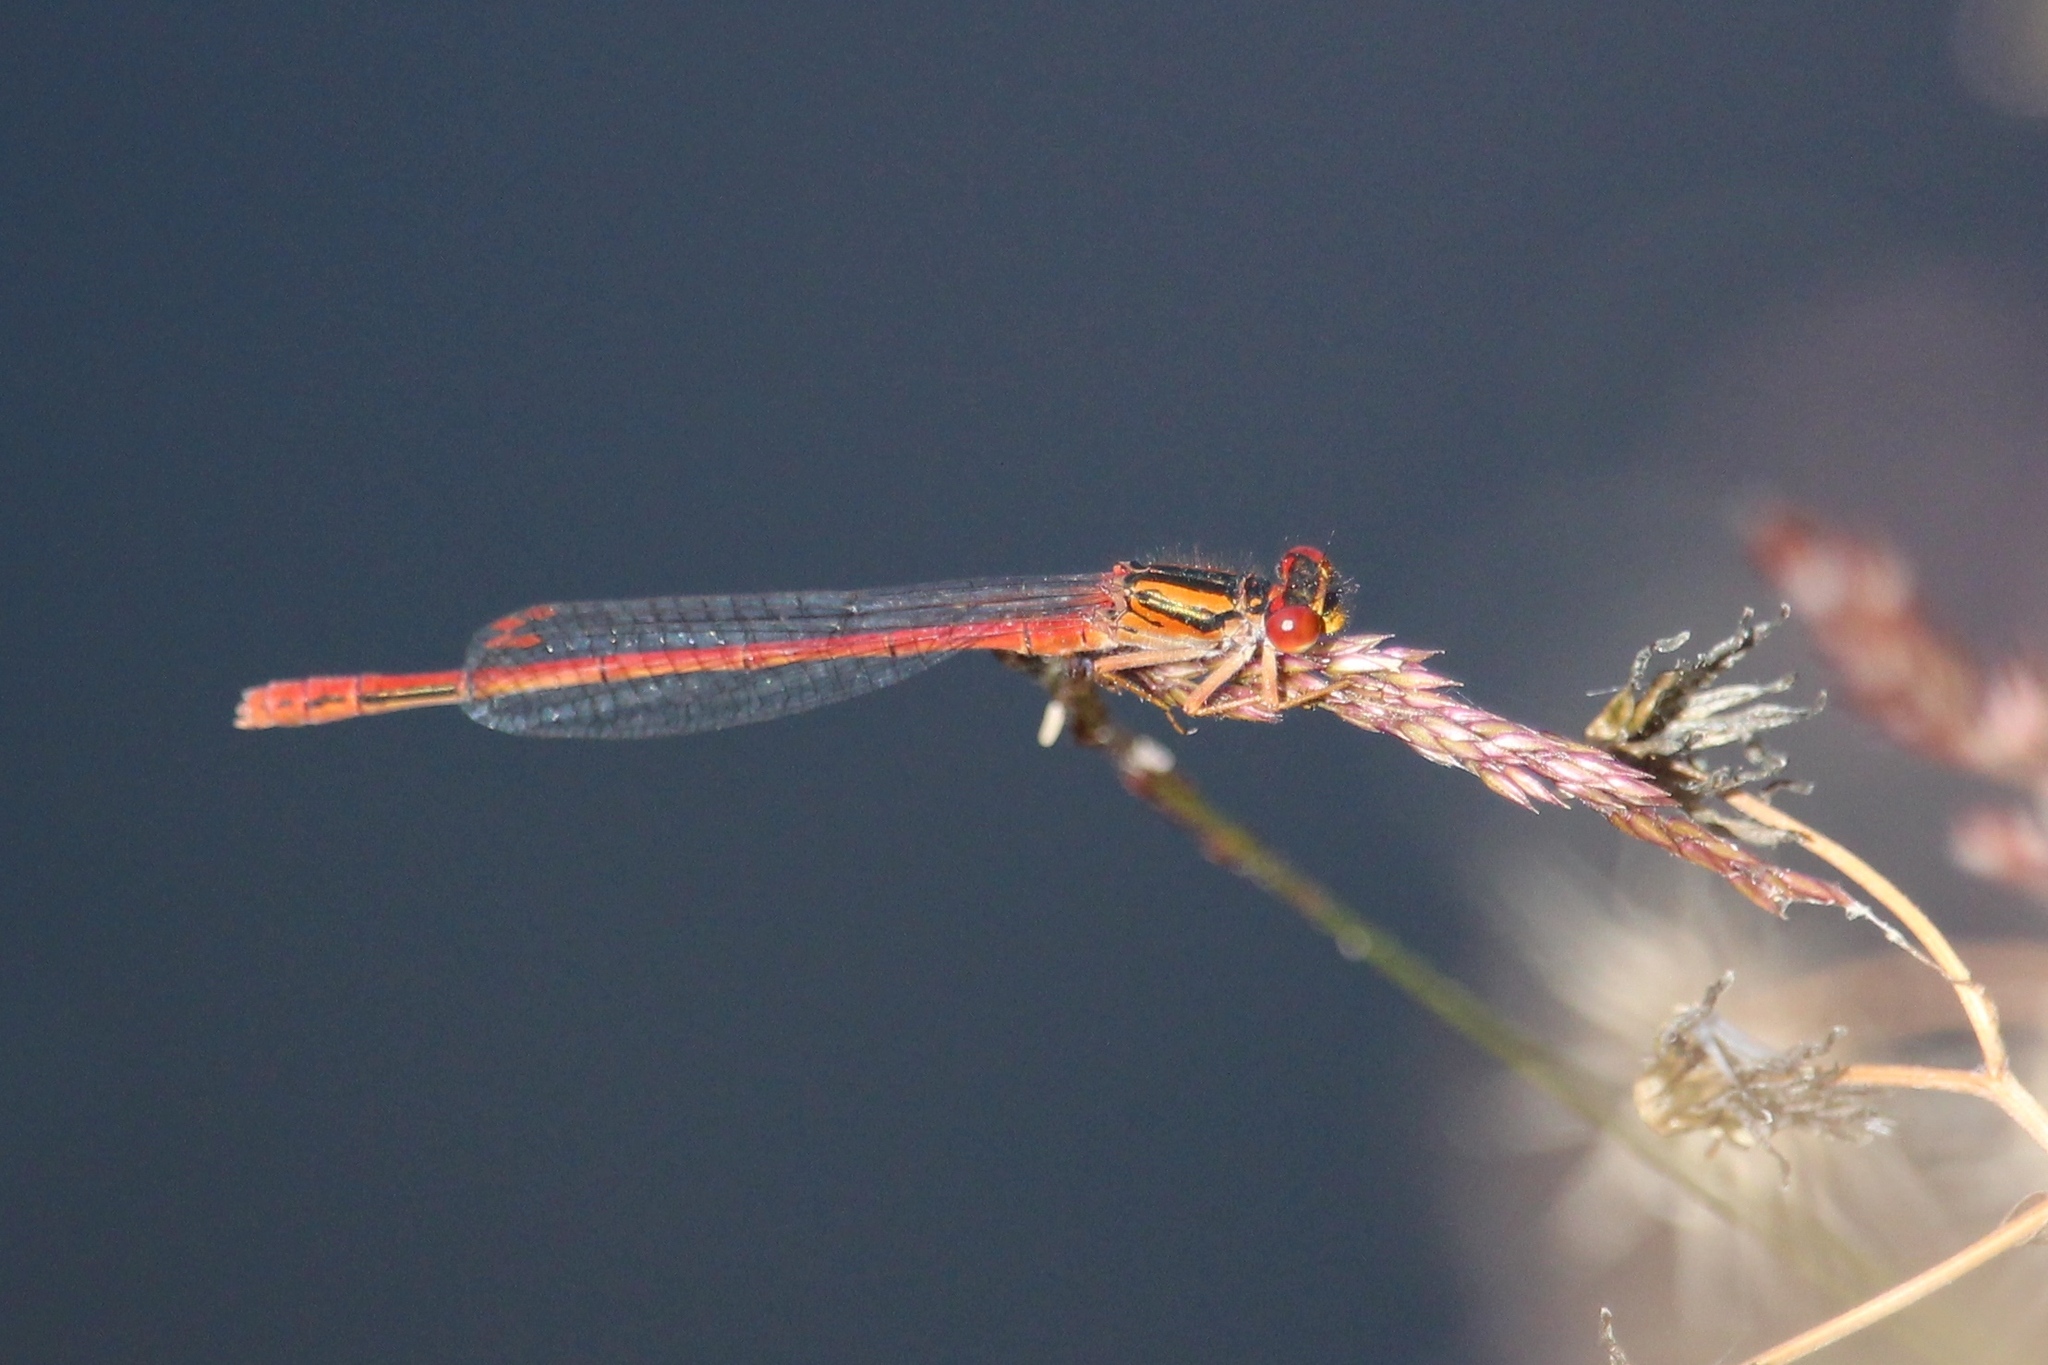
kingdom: Animalia
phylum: Arthropoda
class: Insecta
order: Odonata
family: Coenagrionidae
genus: Xanthocnemis
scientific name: Xanthocnemis zealandica
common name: Common redcoat damselfly
